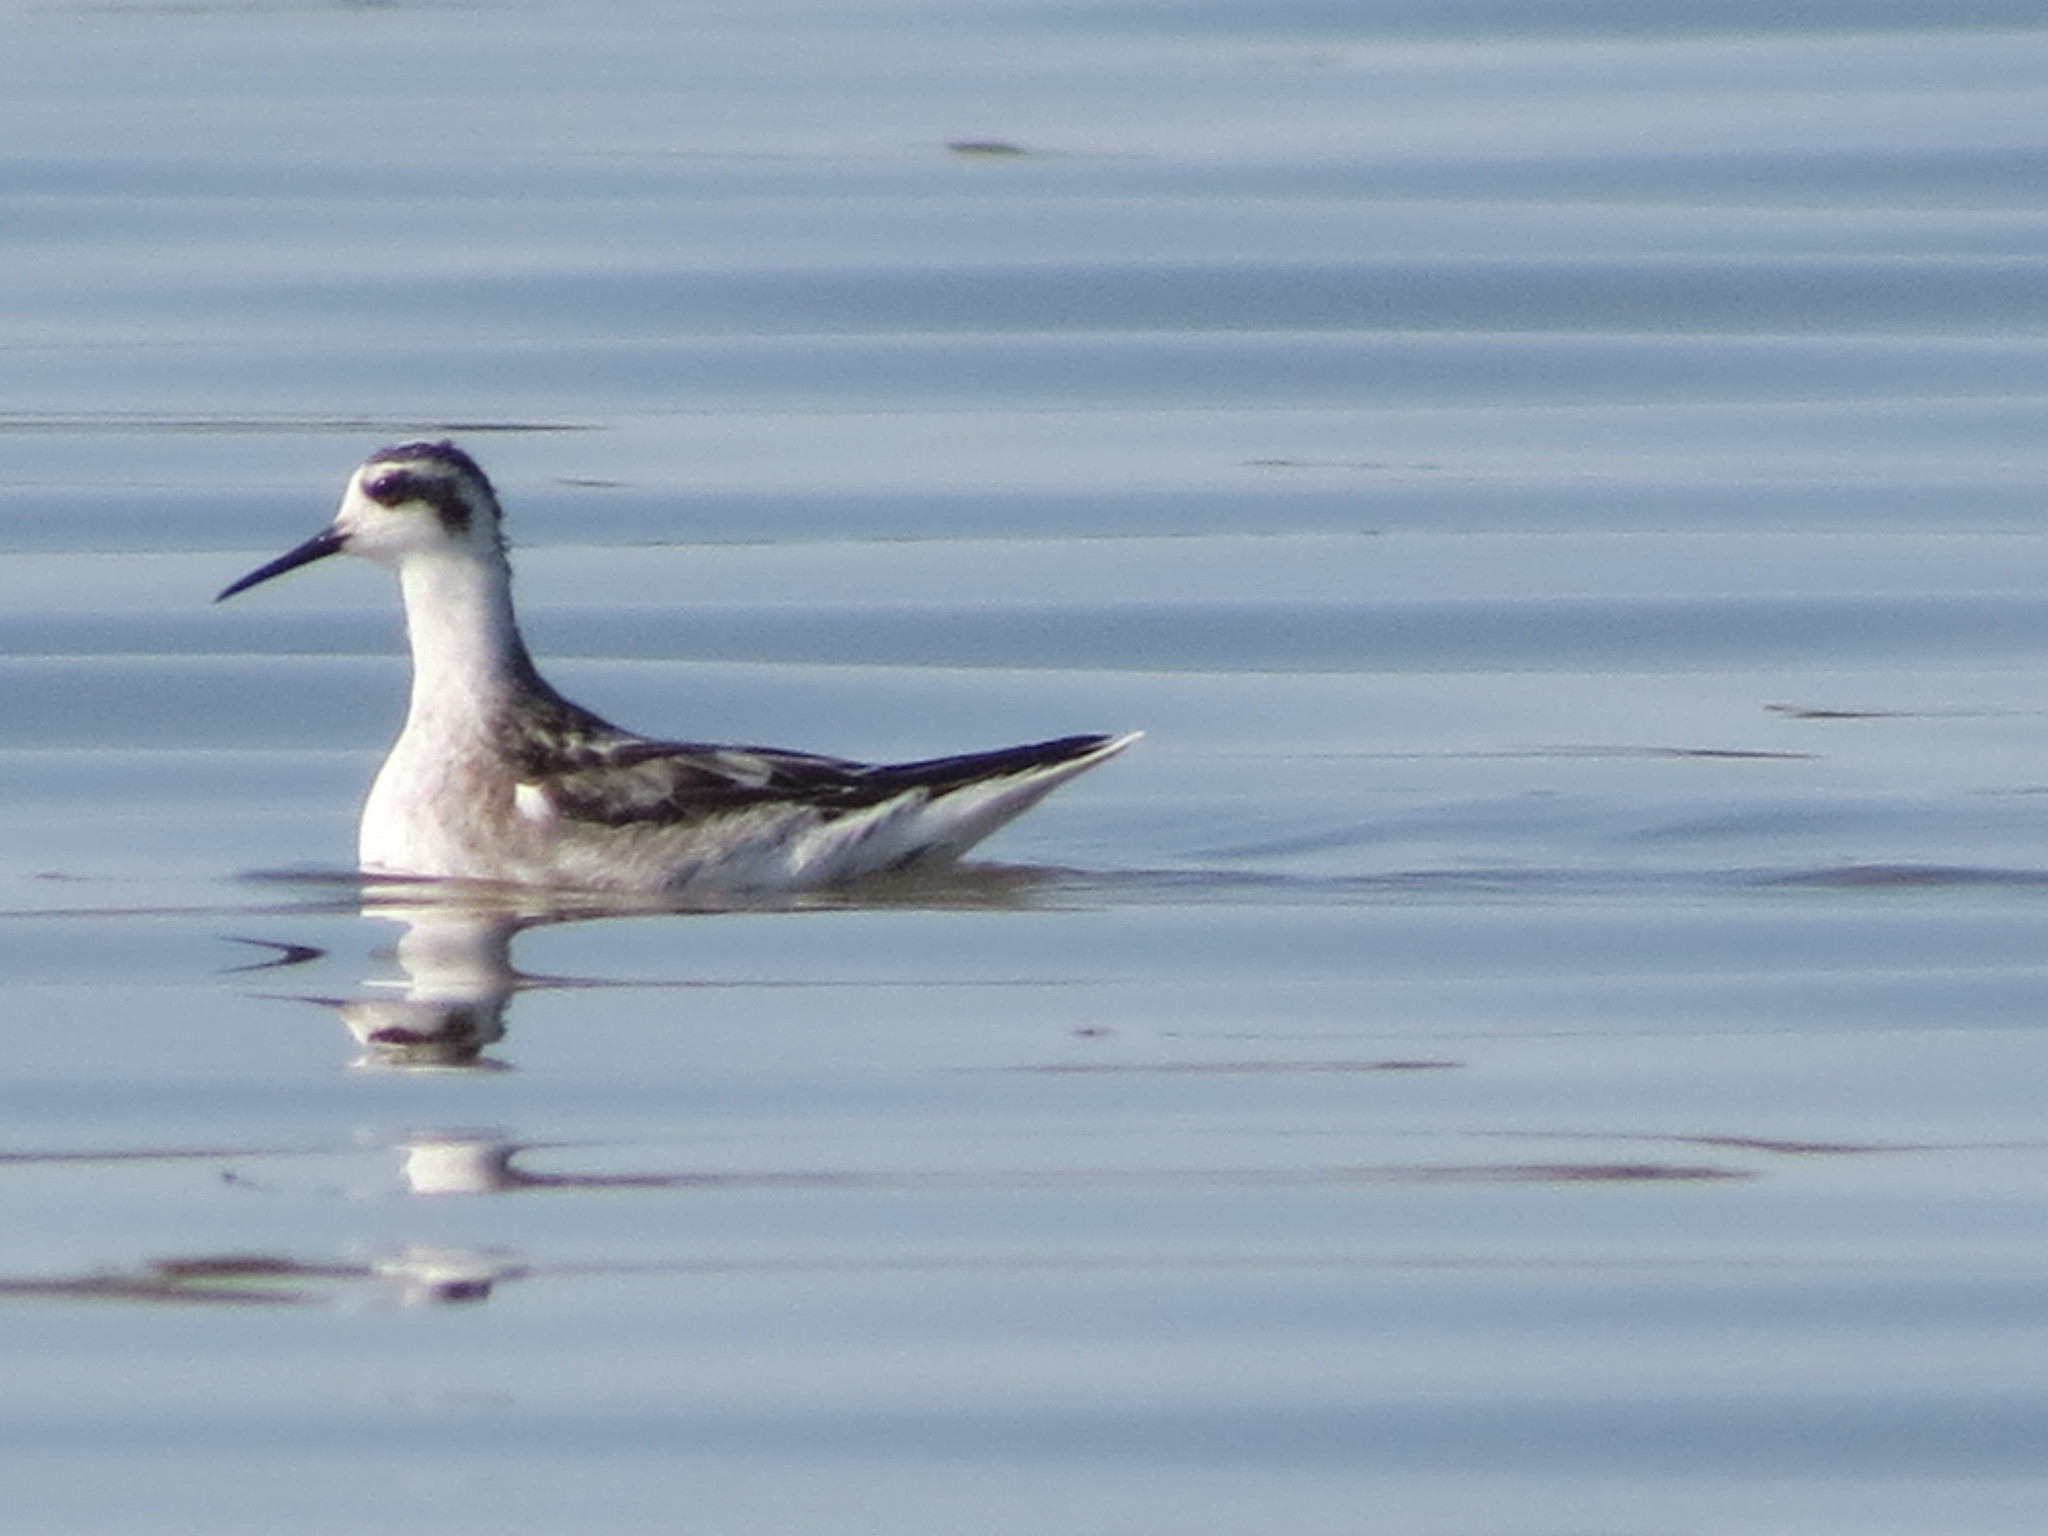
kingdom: Animalia
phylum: Chordata
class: Aves
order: Charadriiformes
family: Scolopacidae
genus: Phalaropus
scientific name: Phalaropus lobatus
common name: Red-necked phalarope
